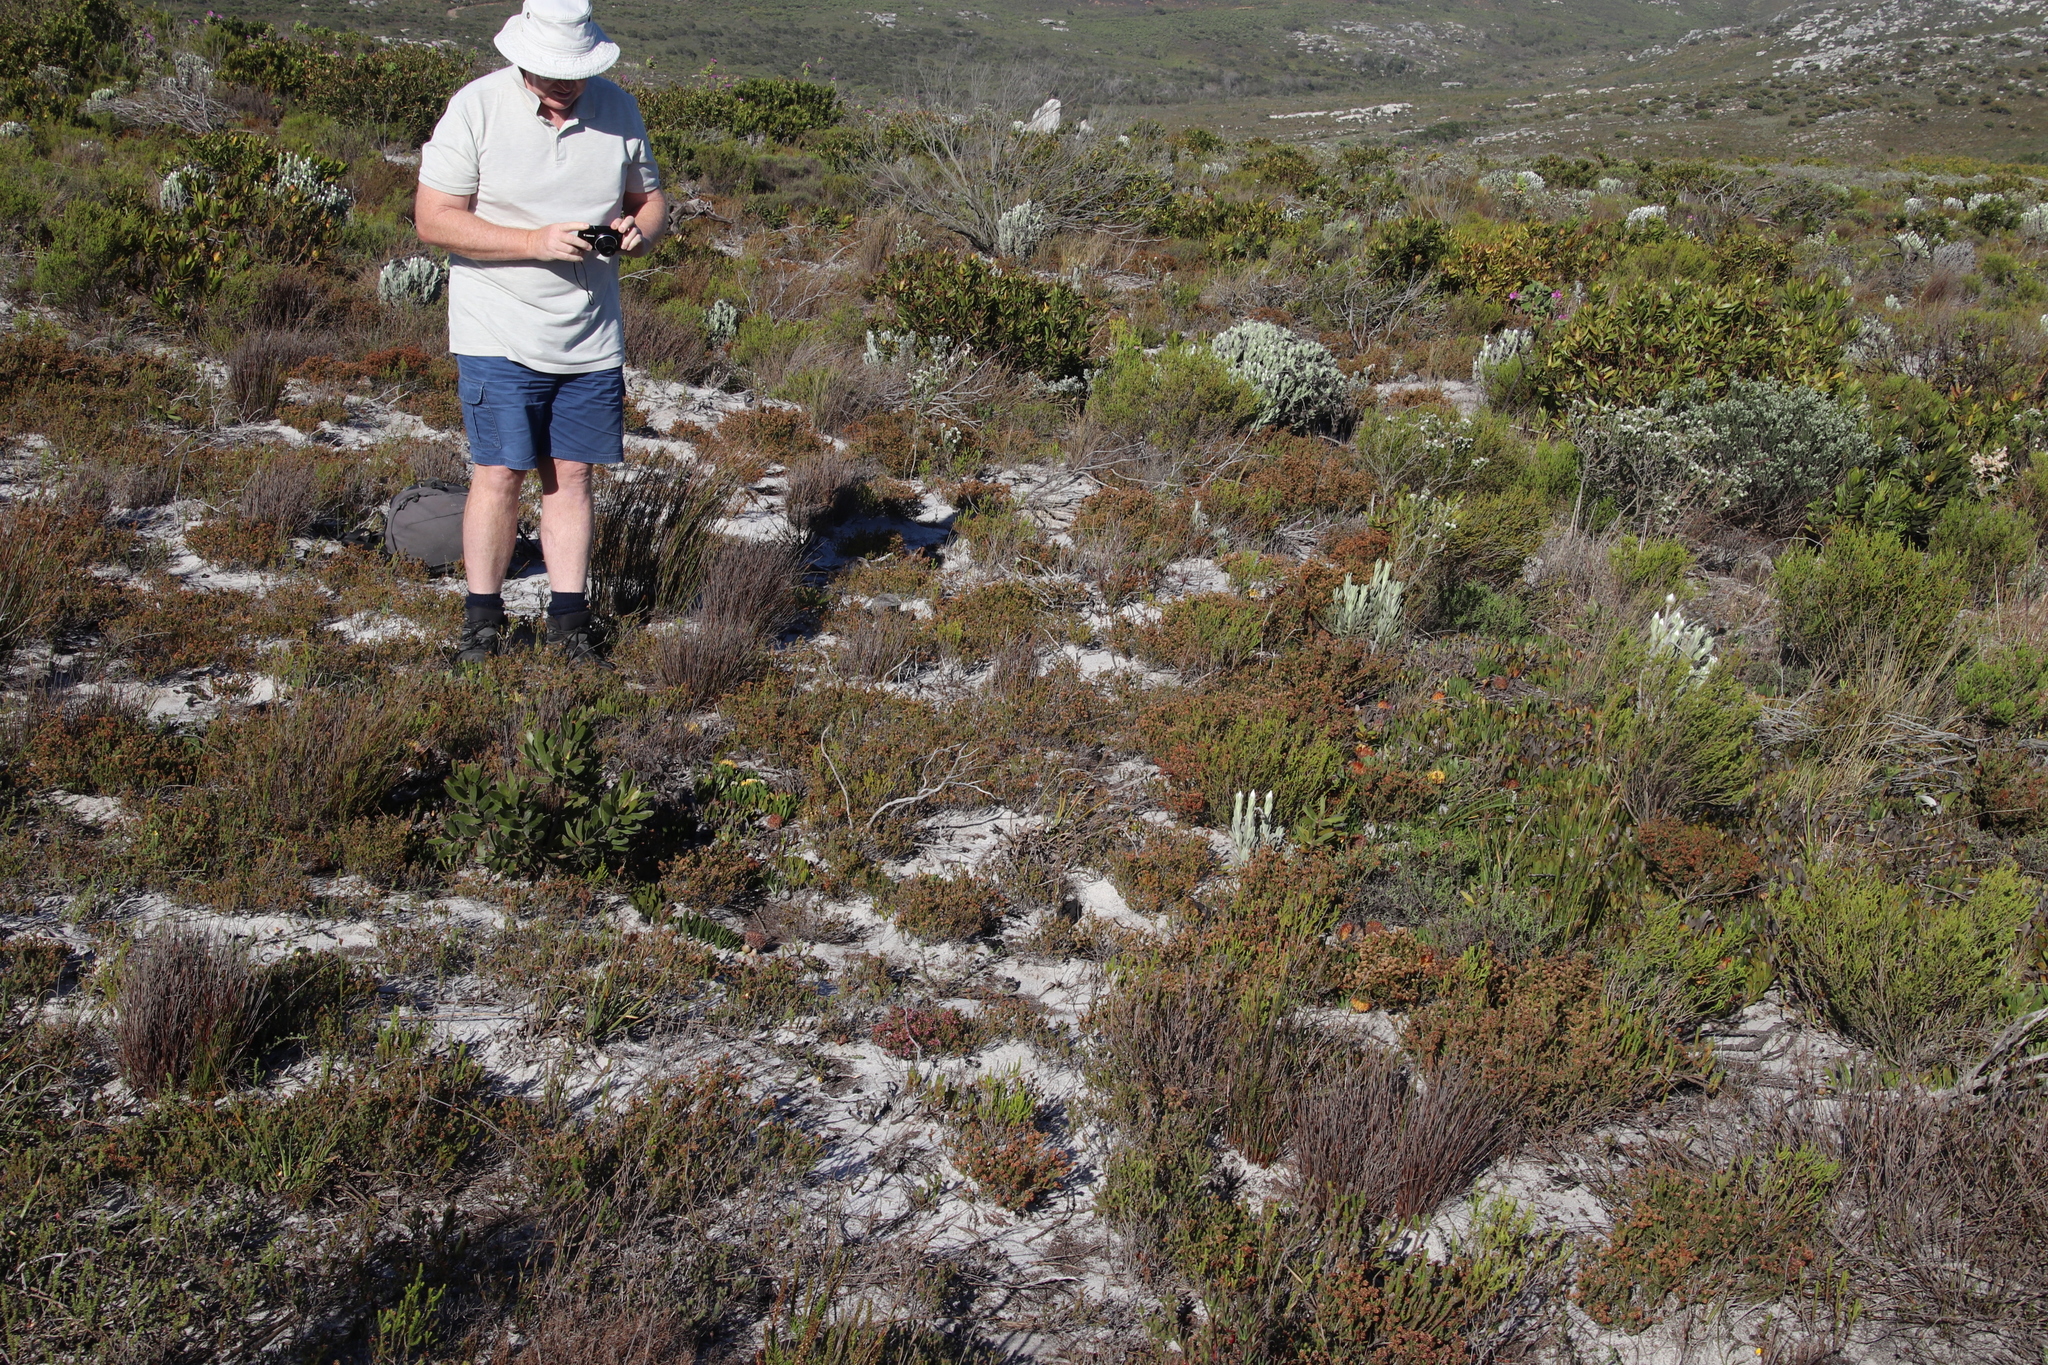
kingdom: Plantae
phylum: Tracheophyta
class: Magnoliopsida
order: Lamiales
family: Scrophulariaceae
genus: Microdon
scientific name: Microdon dubius
